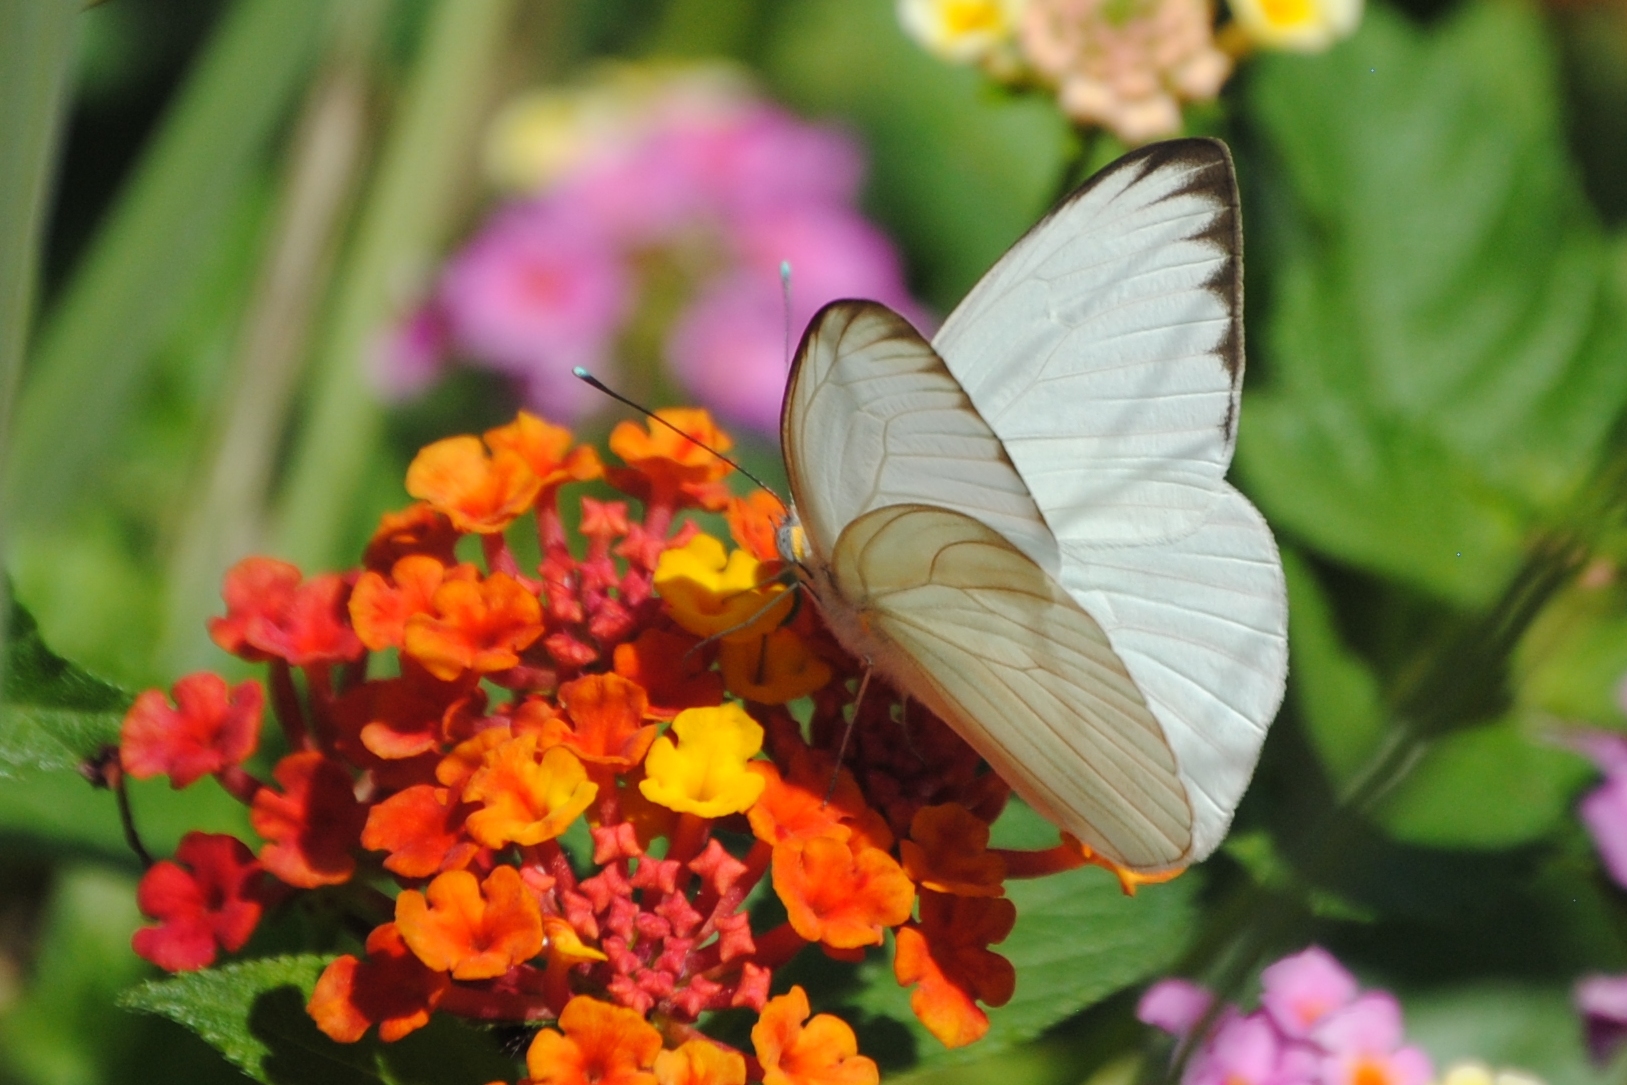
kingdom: Animalia
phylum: Arthropoda
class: Insecta
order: Lepidoptera
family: Pieridae
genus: Ascia
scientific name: Ascia monuste
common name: Great southern white
